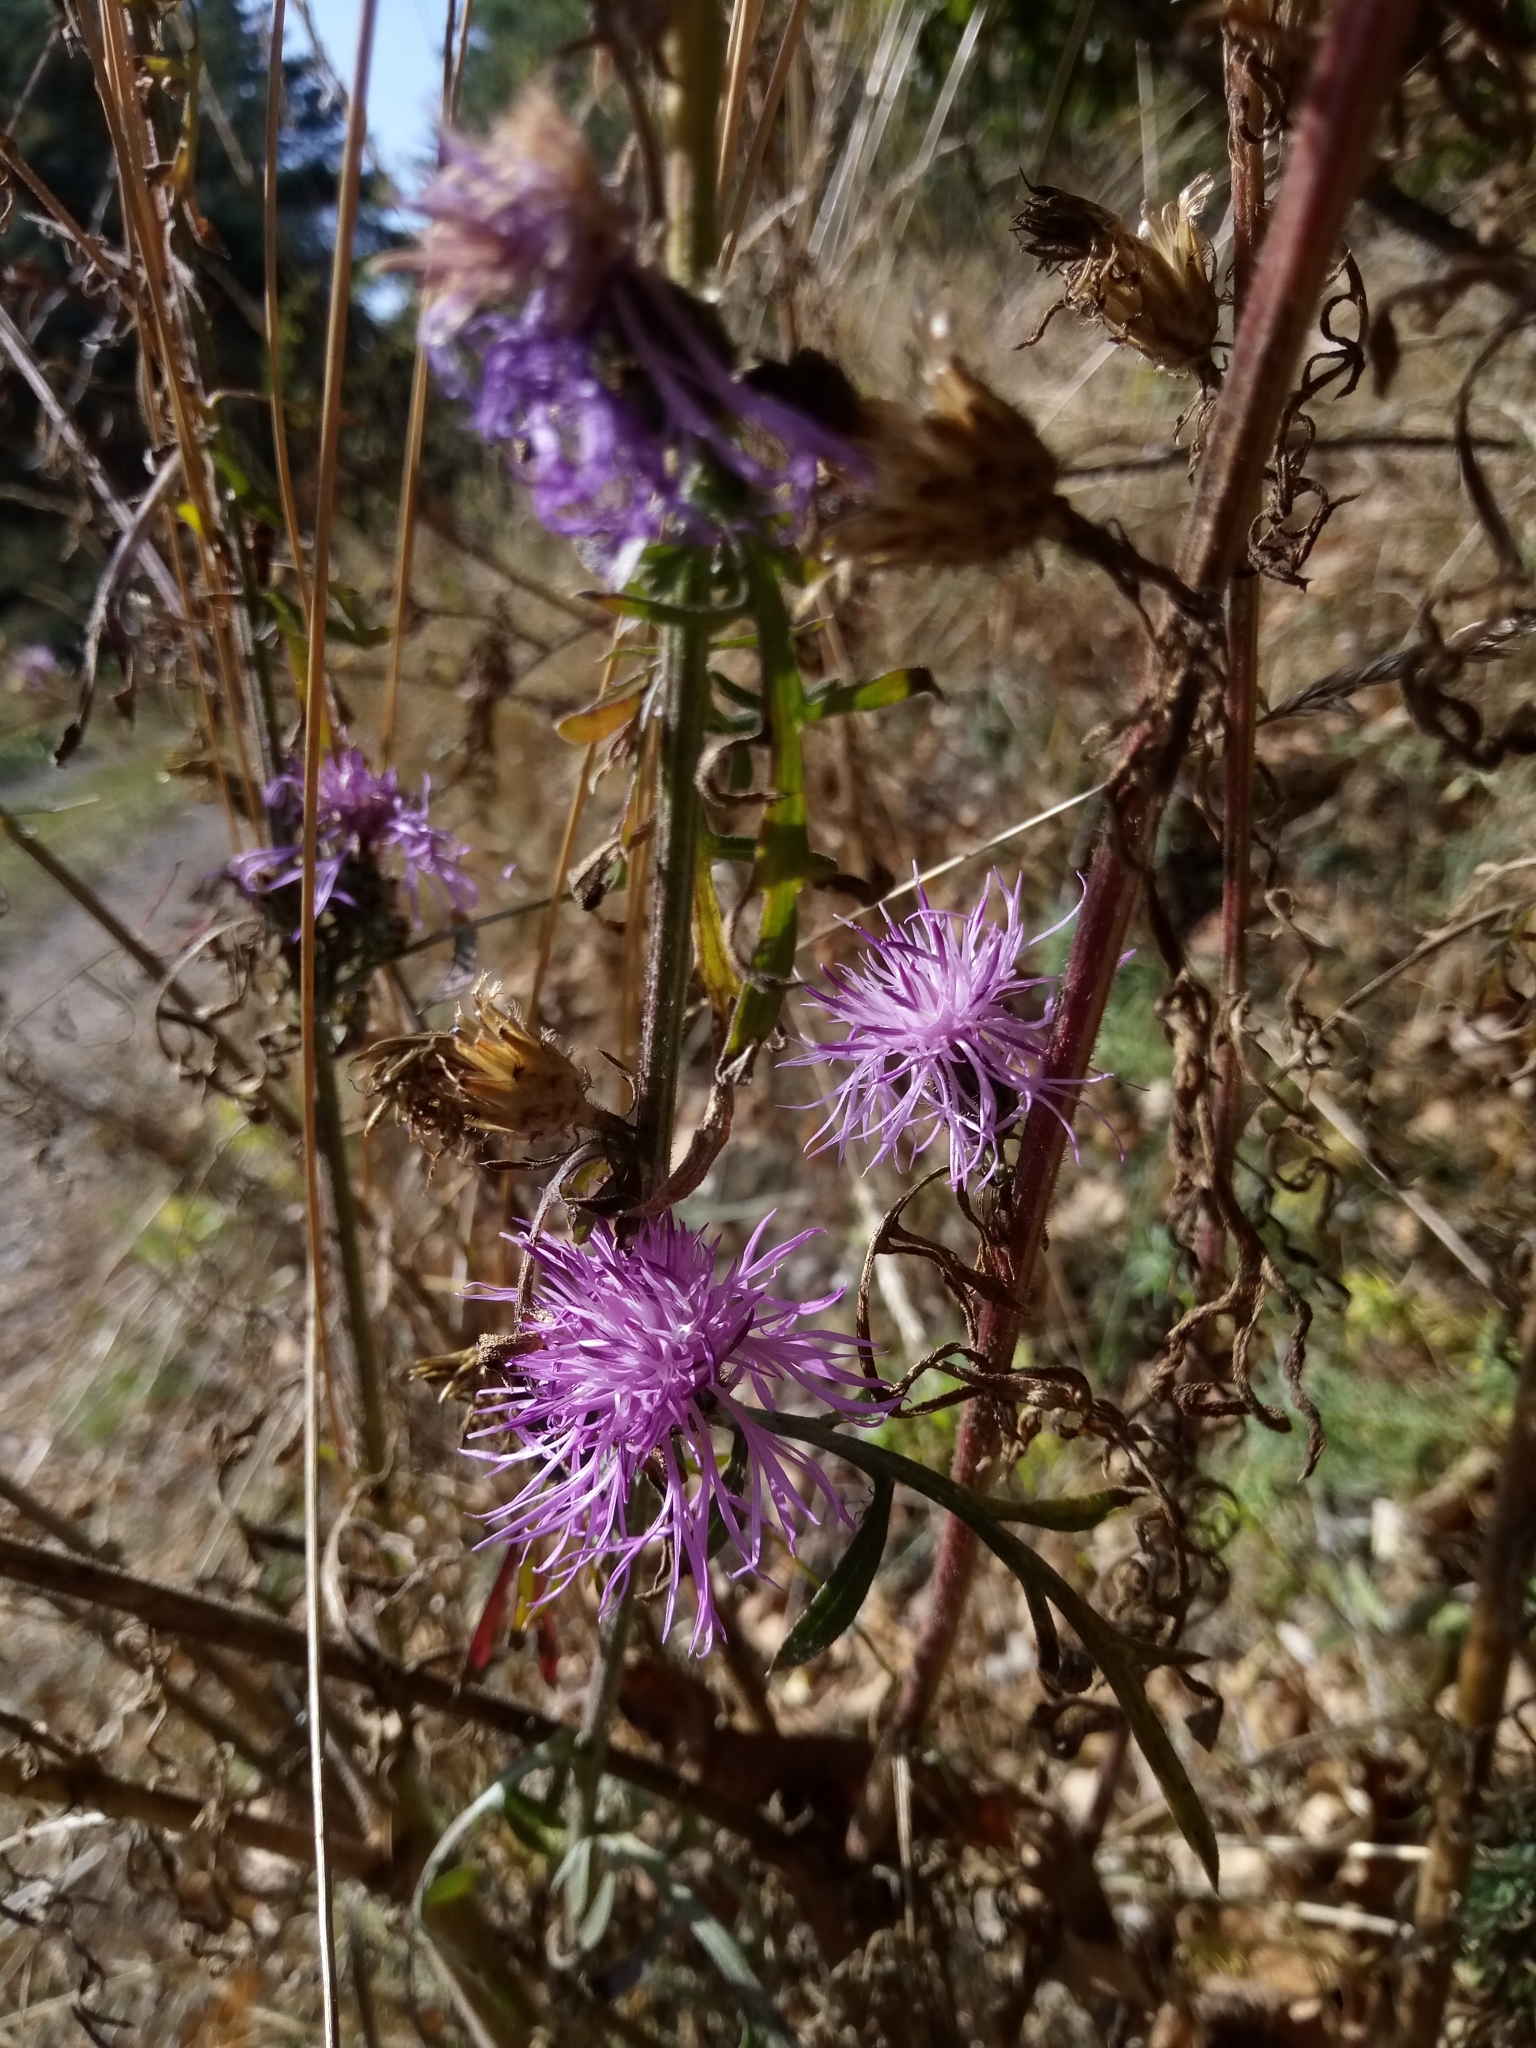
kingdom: Plantae
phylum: Tracheophyta
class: Magnoliopsida
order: Asterales
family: Asteraceae
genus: Centaurea
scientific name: Centaurea stoebe
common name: Spotted knapweed
